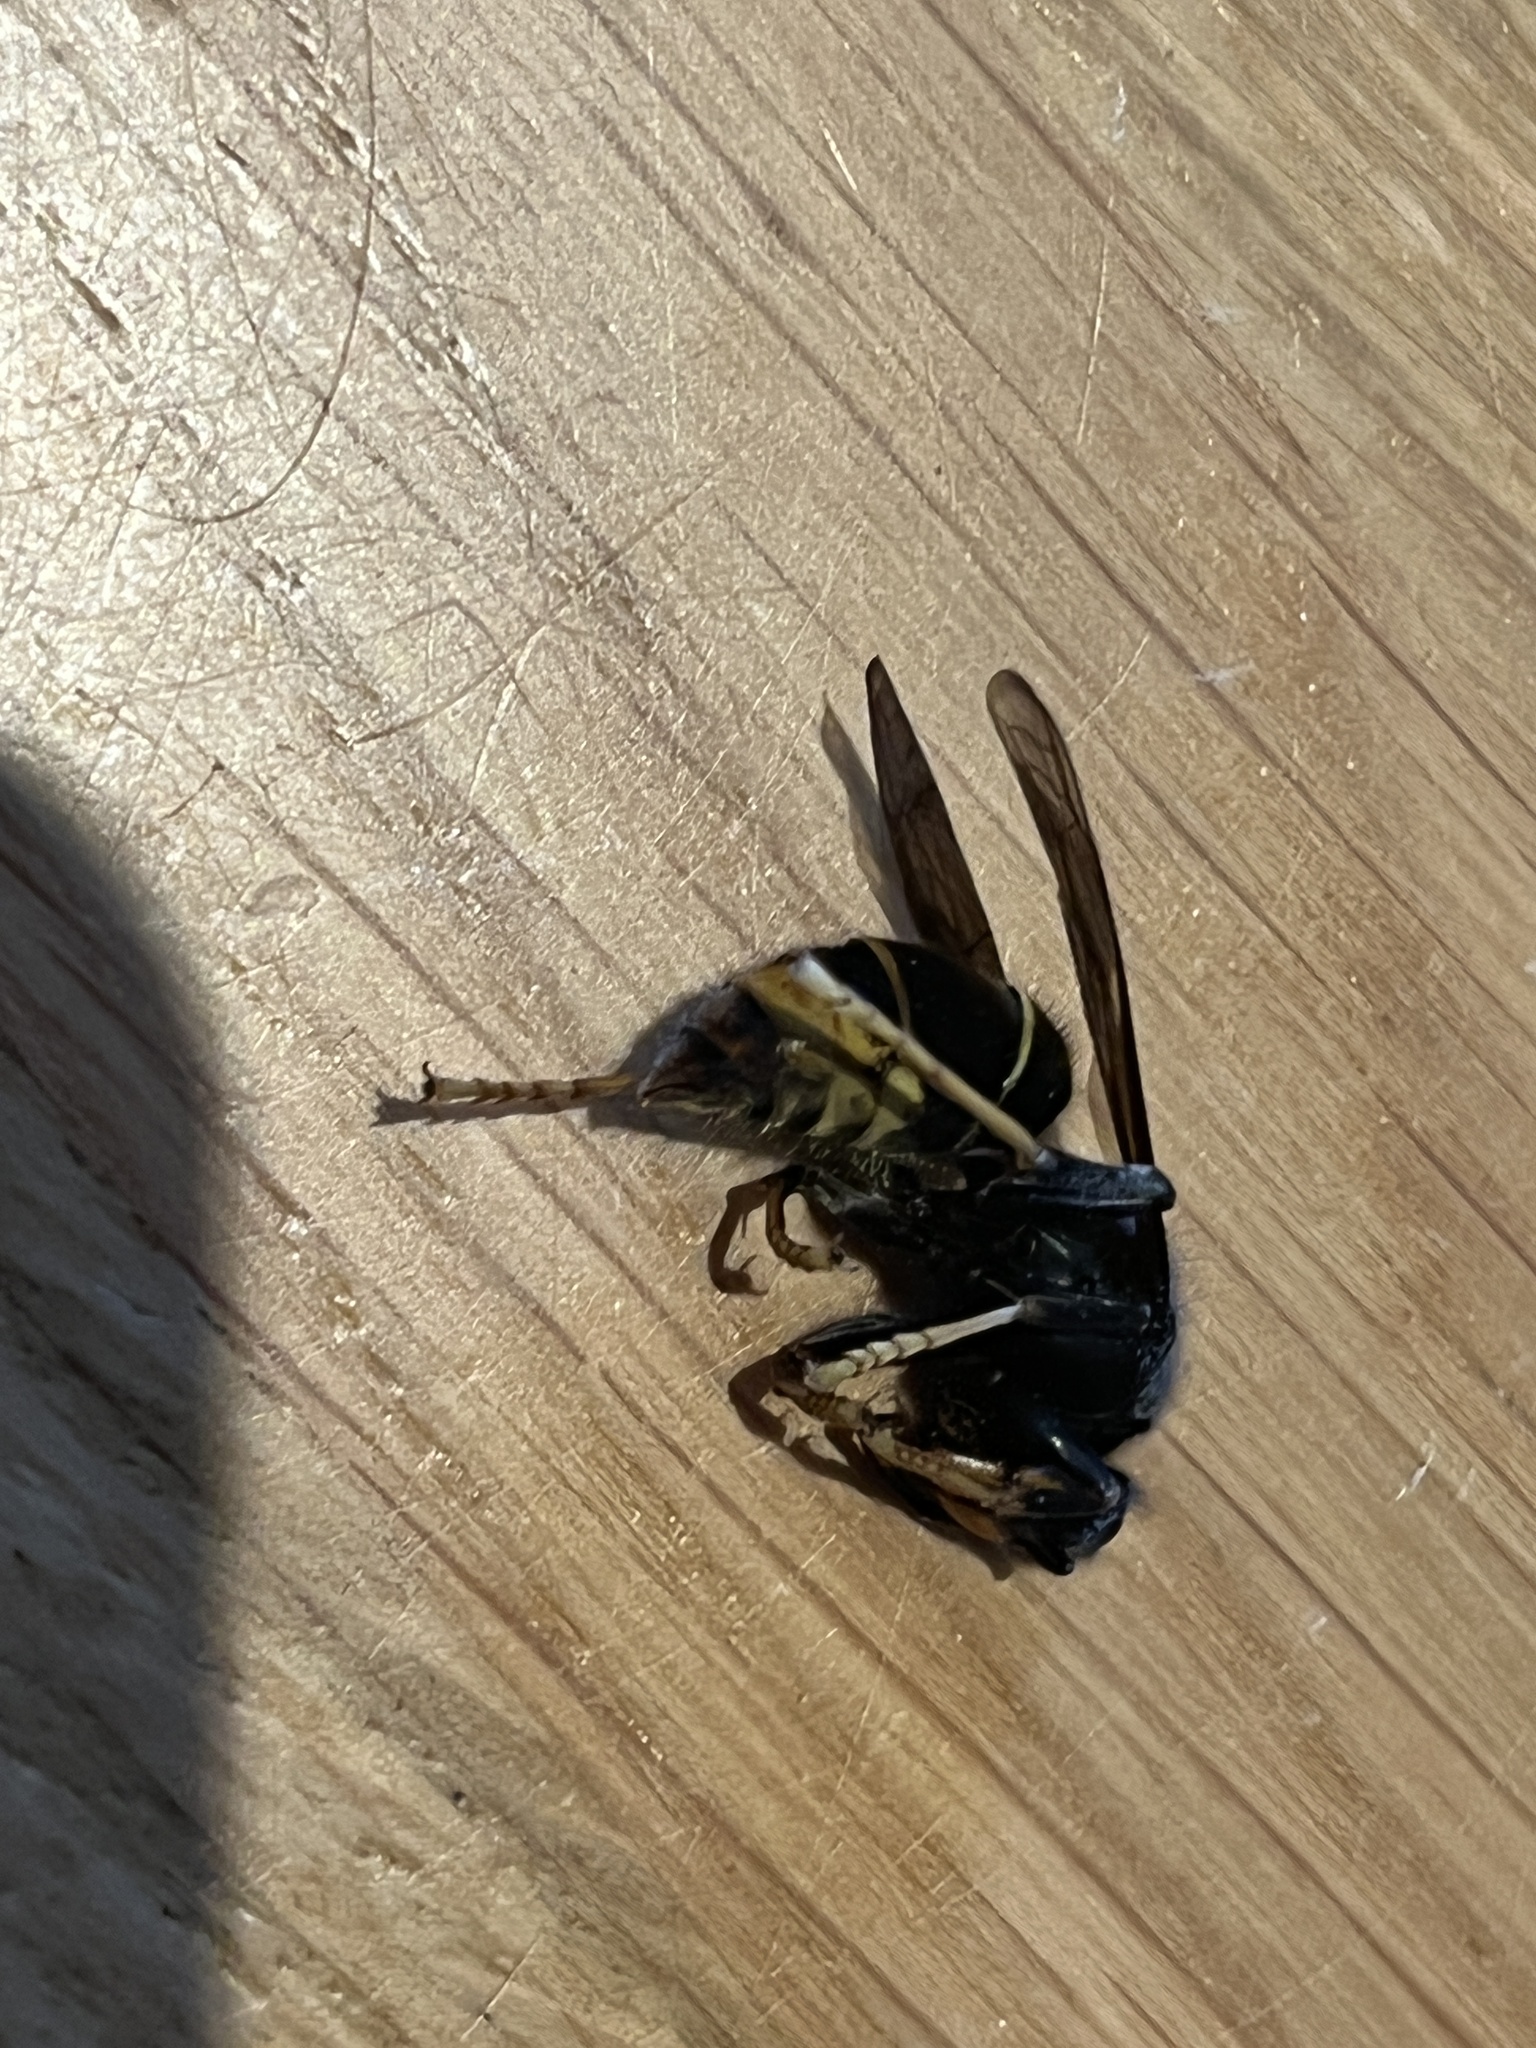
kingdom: Animalia
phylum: Arthropoda
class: Insecta
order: Hymenoptera
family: Vespidae
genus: Vespa
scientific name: Vespa velutina
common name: Asian hornet
